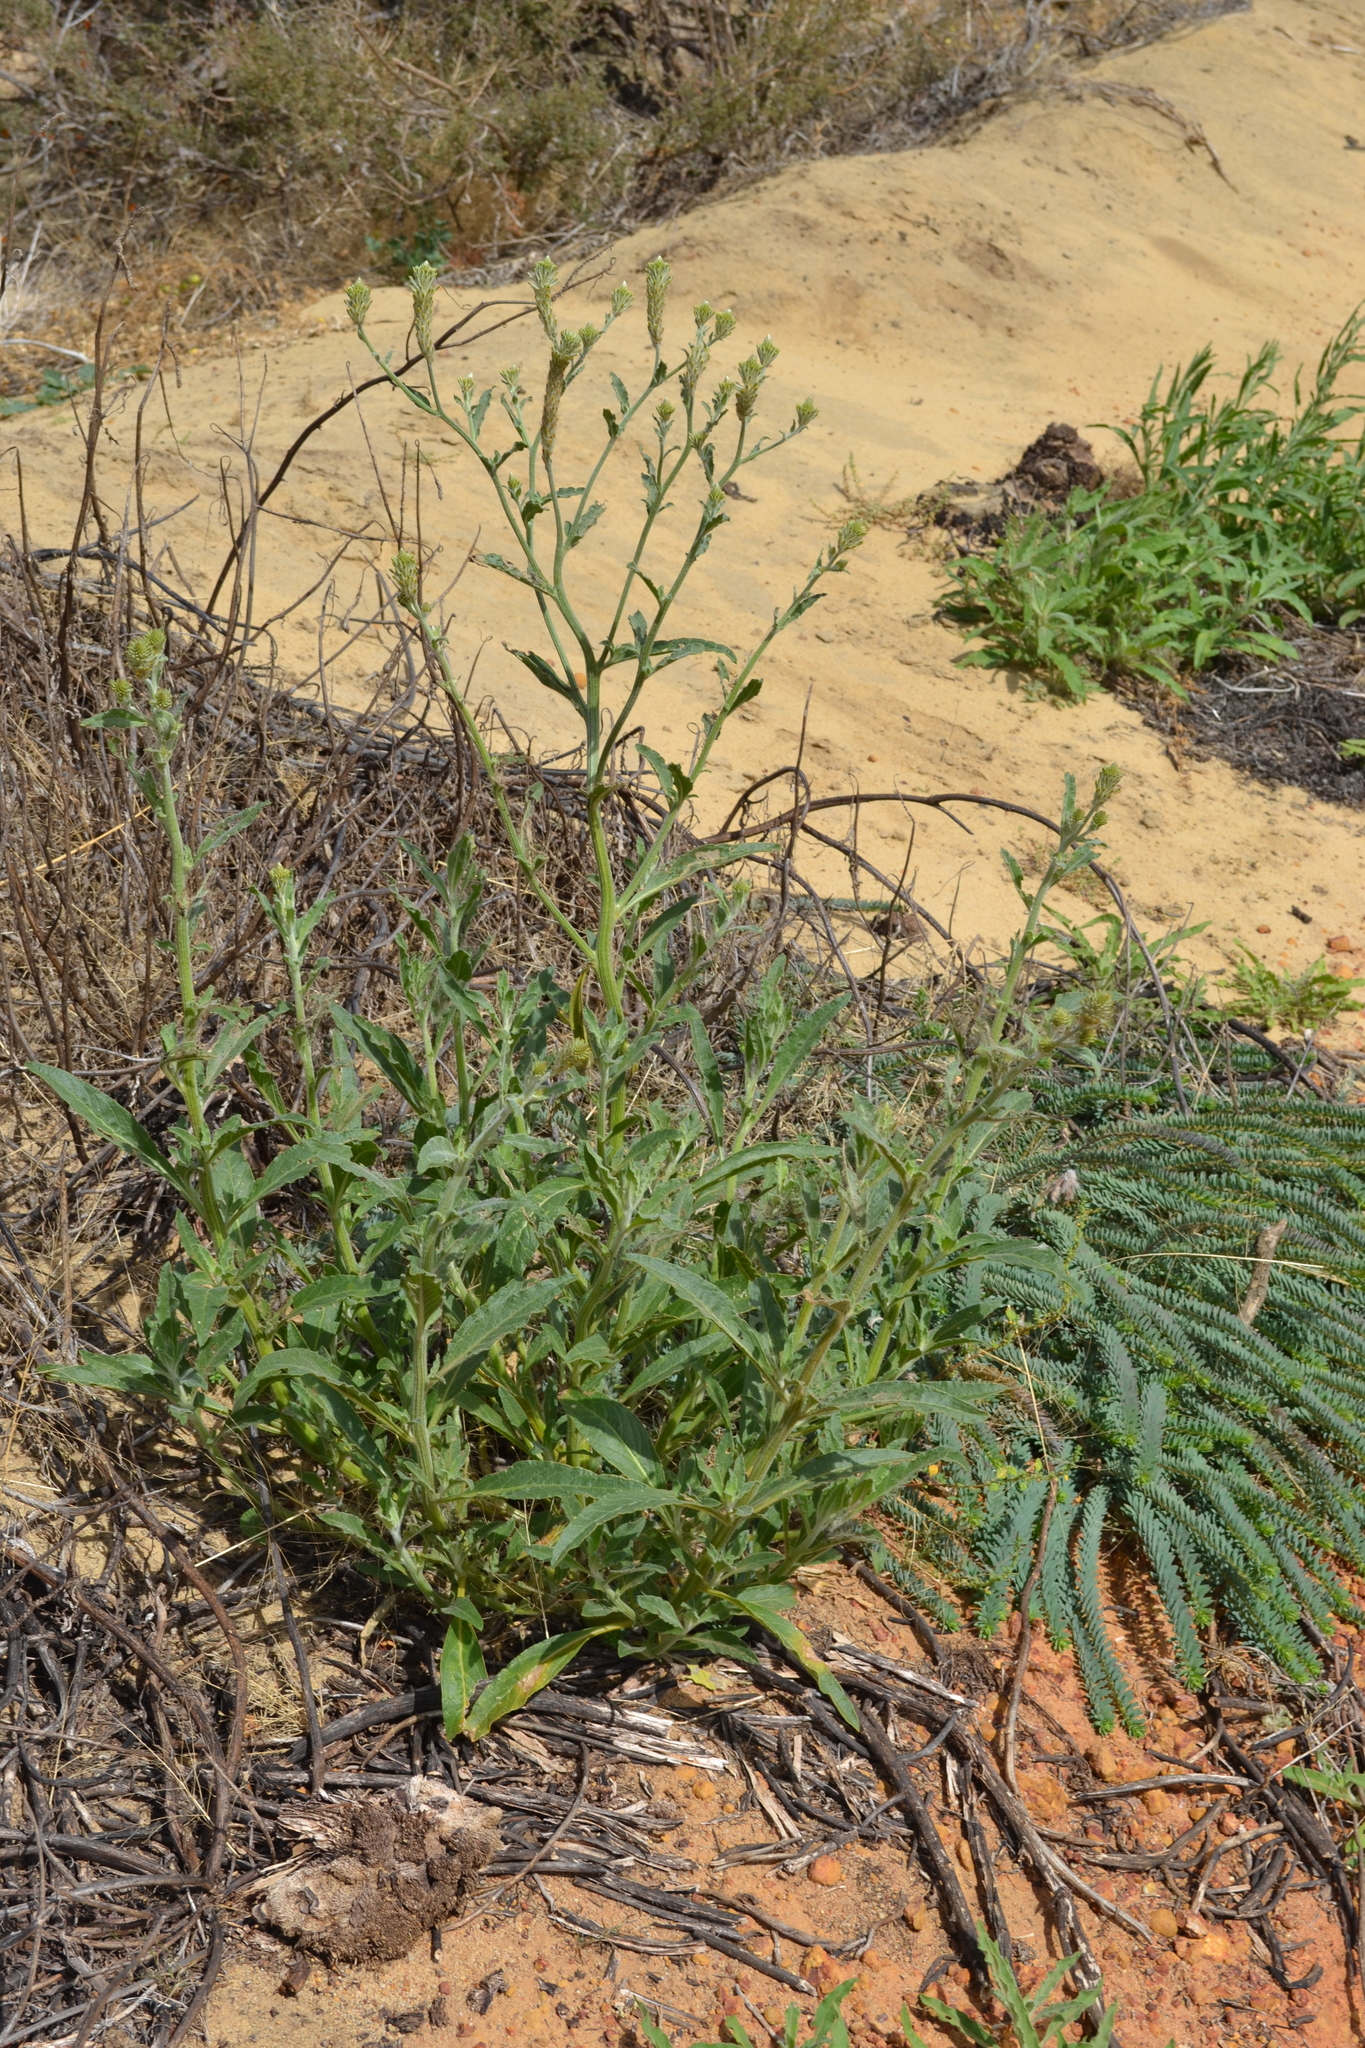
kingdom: Plantae
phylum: Tracheophyta
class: Magnoliopsida
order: Caryophyllales
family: Amaranthaceae
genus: Ptilotus
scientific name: Ptilotus polystachyus
